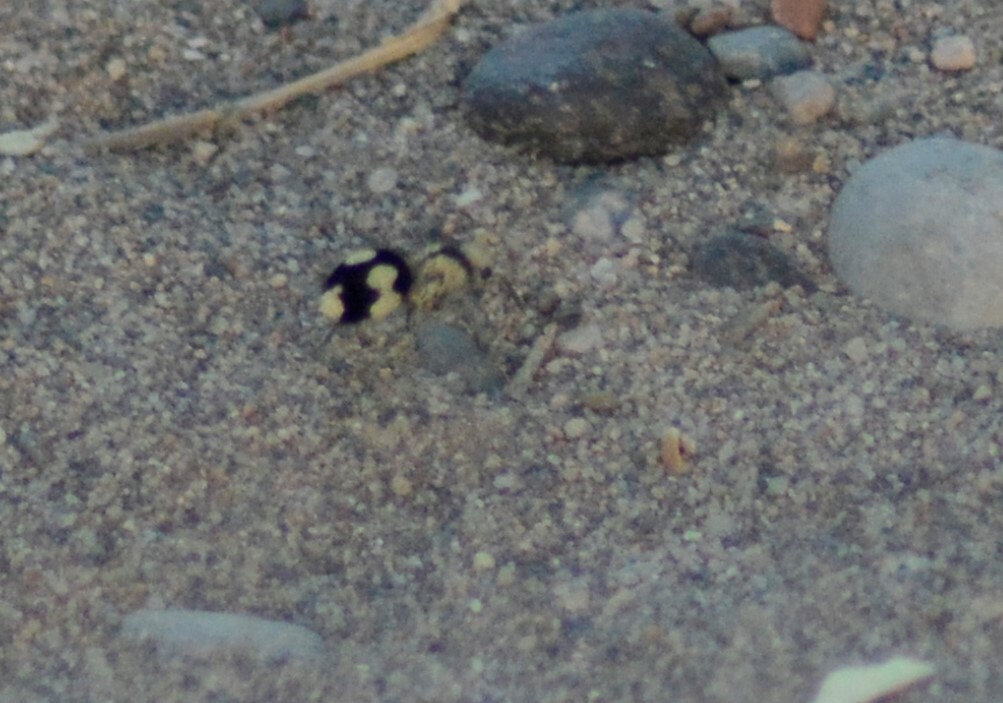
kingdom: Animalia
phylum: Arthropoda
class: Insecta
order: Hymenoptera
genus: Reedomutilla
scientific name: Reedomutilla
